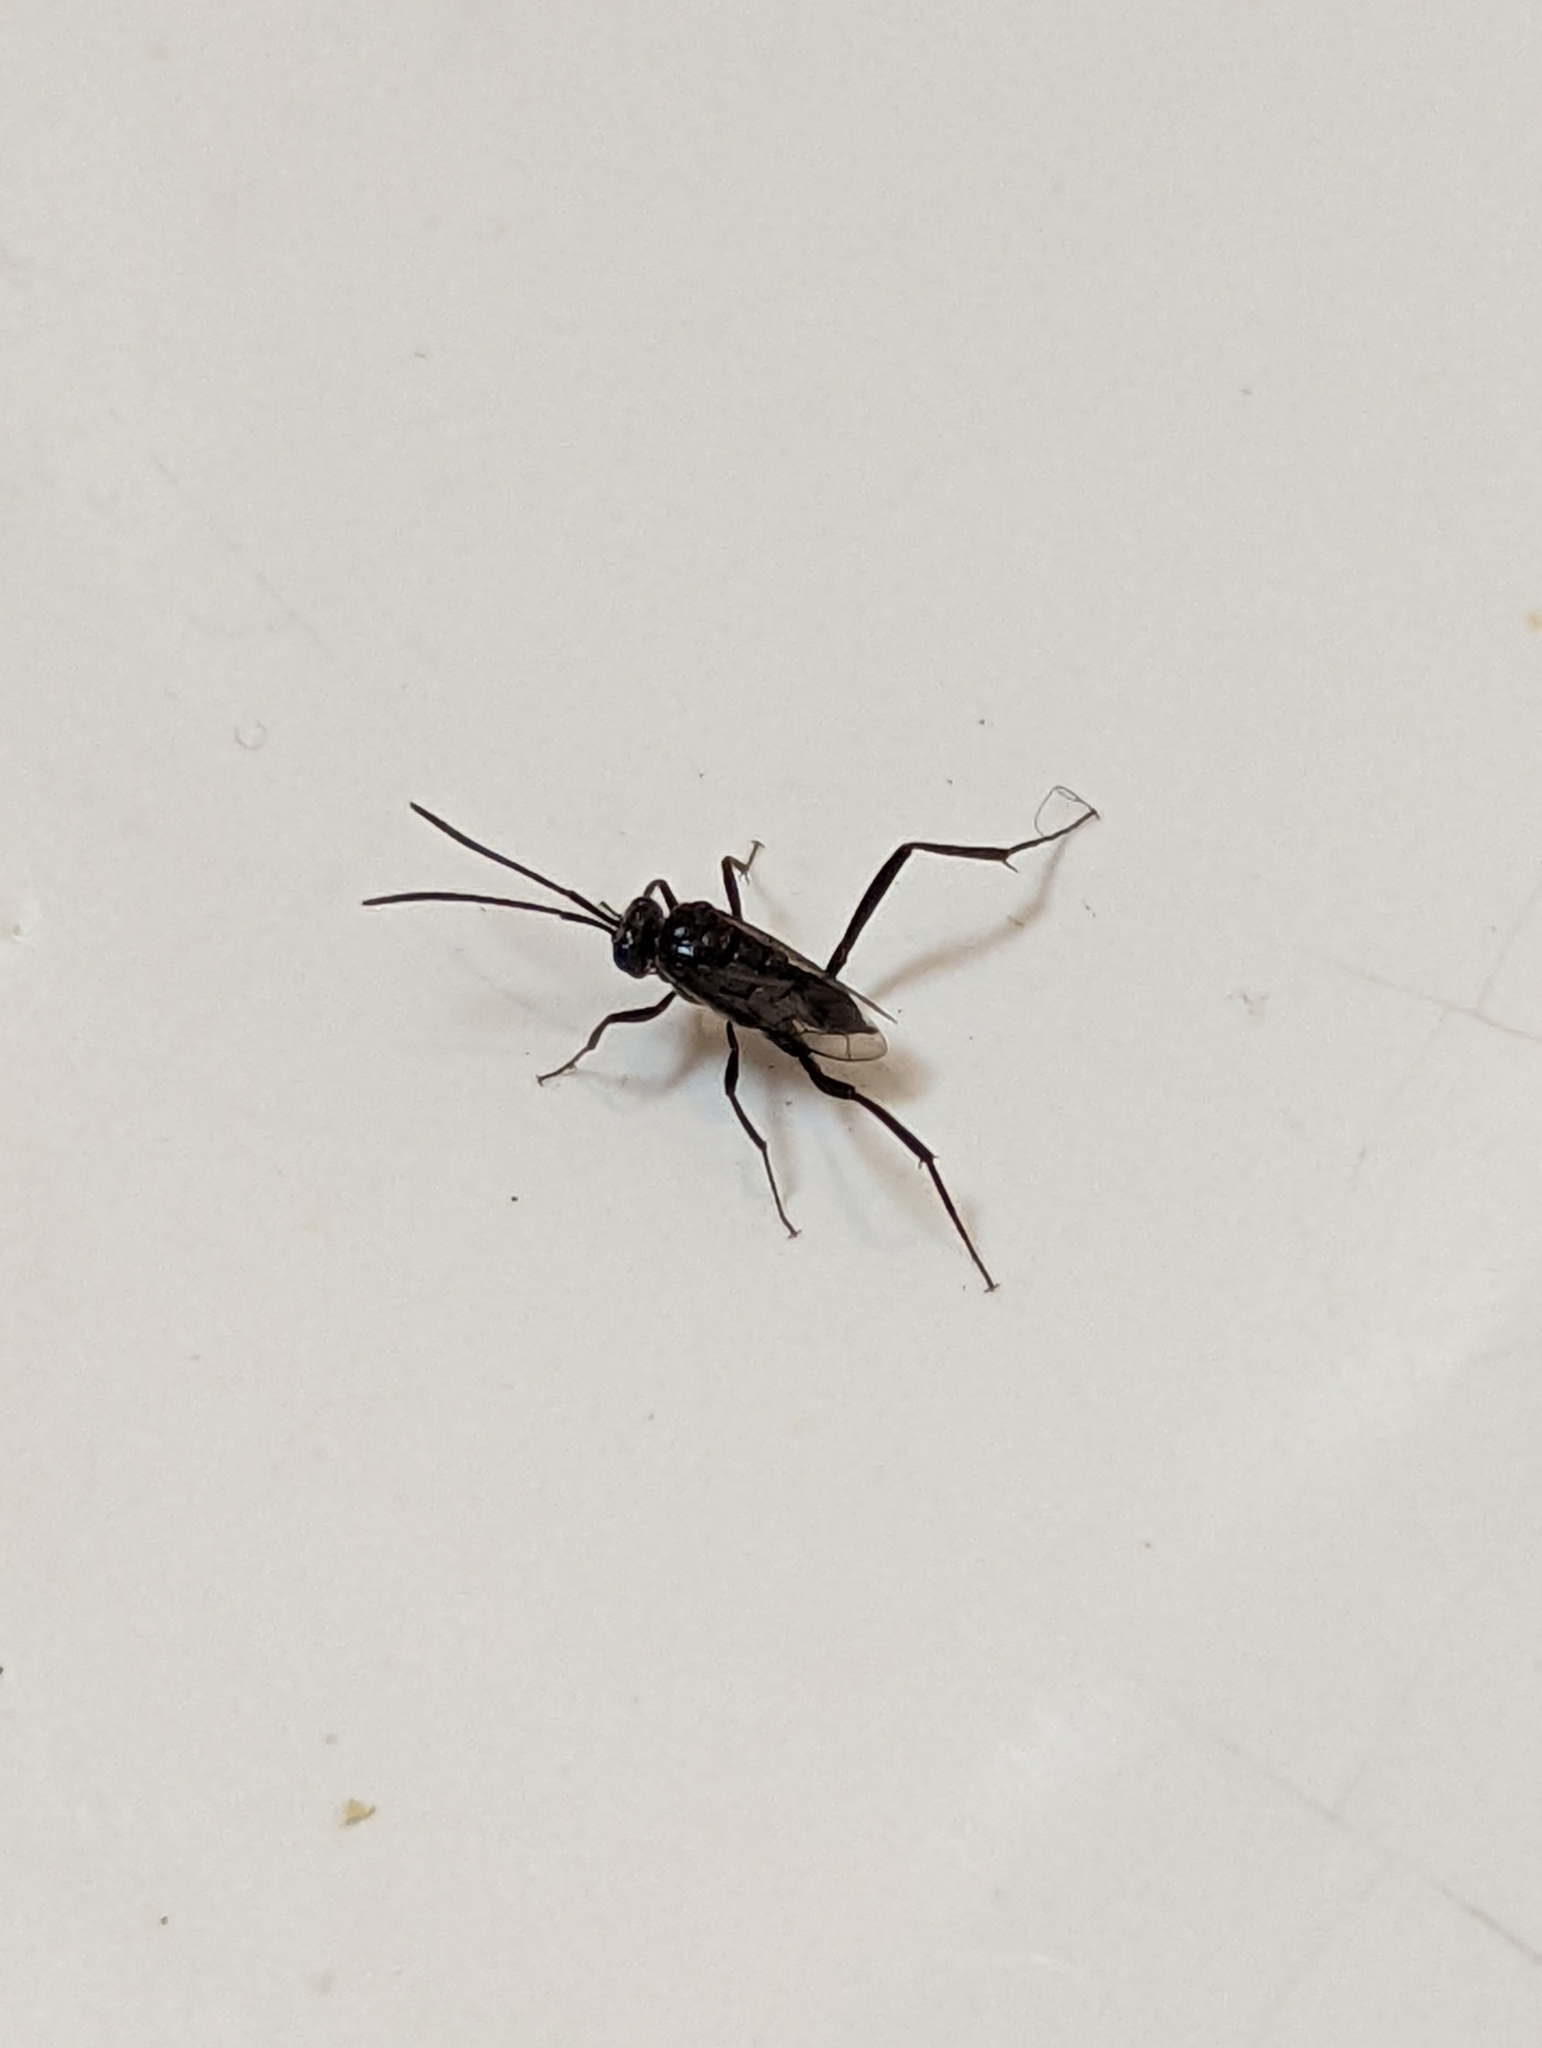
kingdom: Animalia
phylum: Arthropoda
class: Insecta
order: Hymenoptera
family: Evaniidae
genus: Evania
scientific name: Evania appendigaster
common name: Ensign wasp
